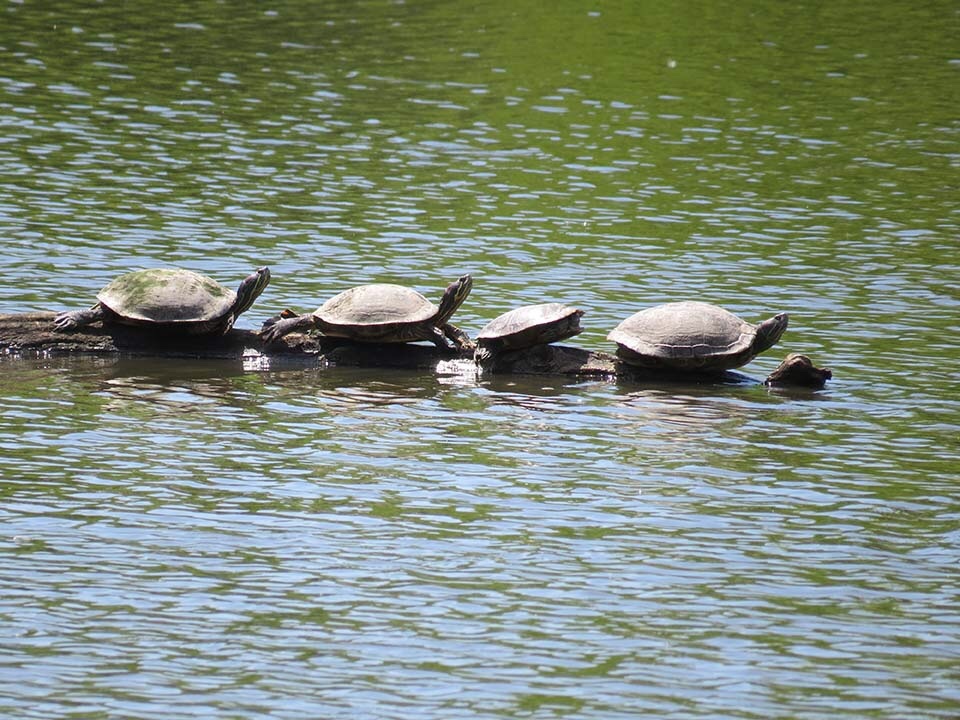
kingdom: Animalia
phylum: Chordata
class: Testudines
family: Emydidae
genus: Trachemys
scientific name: Trachemys scripta
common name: Slider
